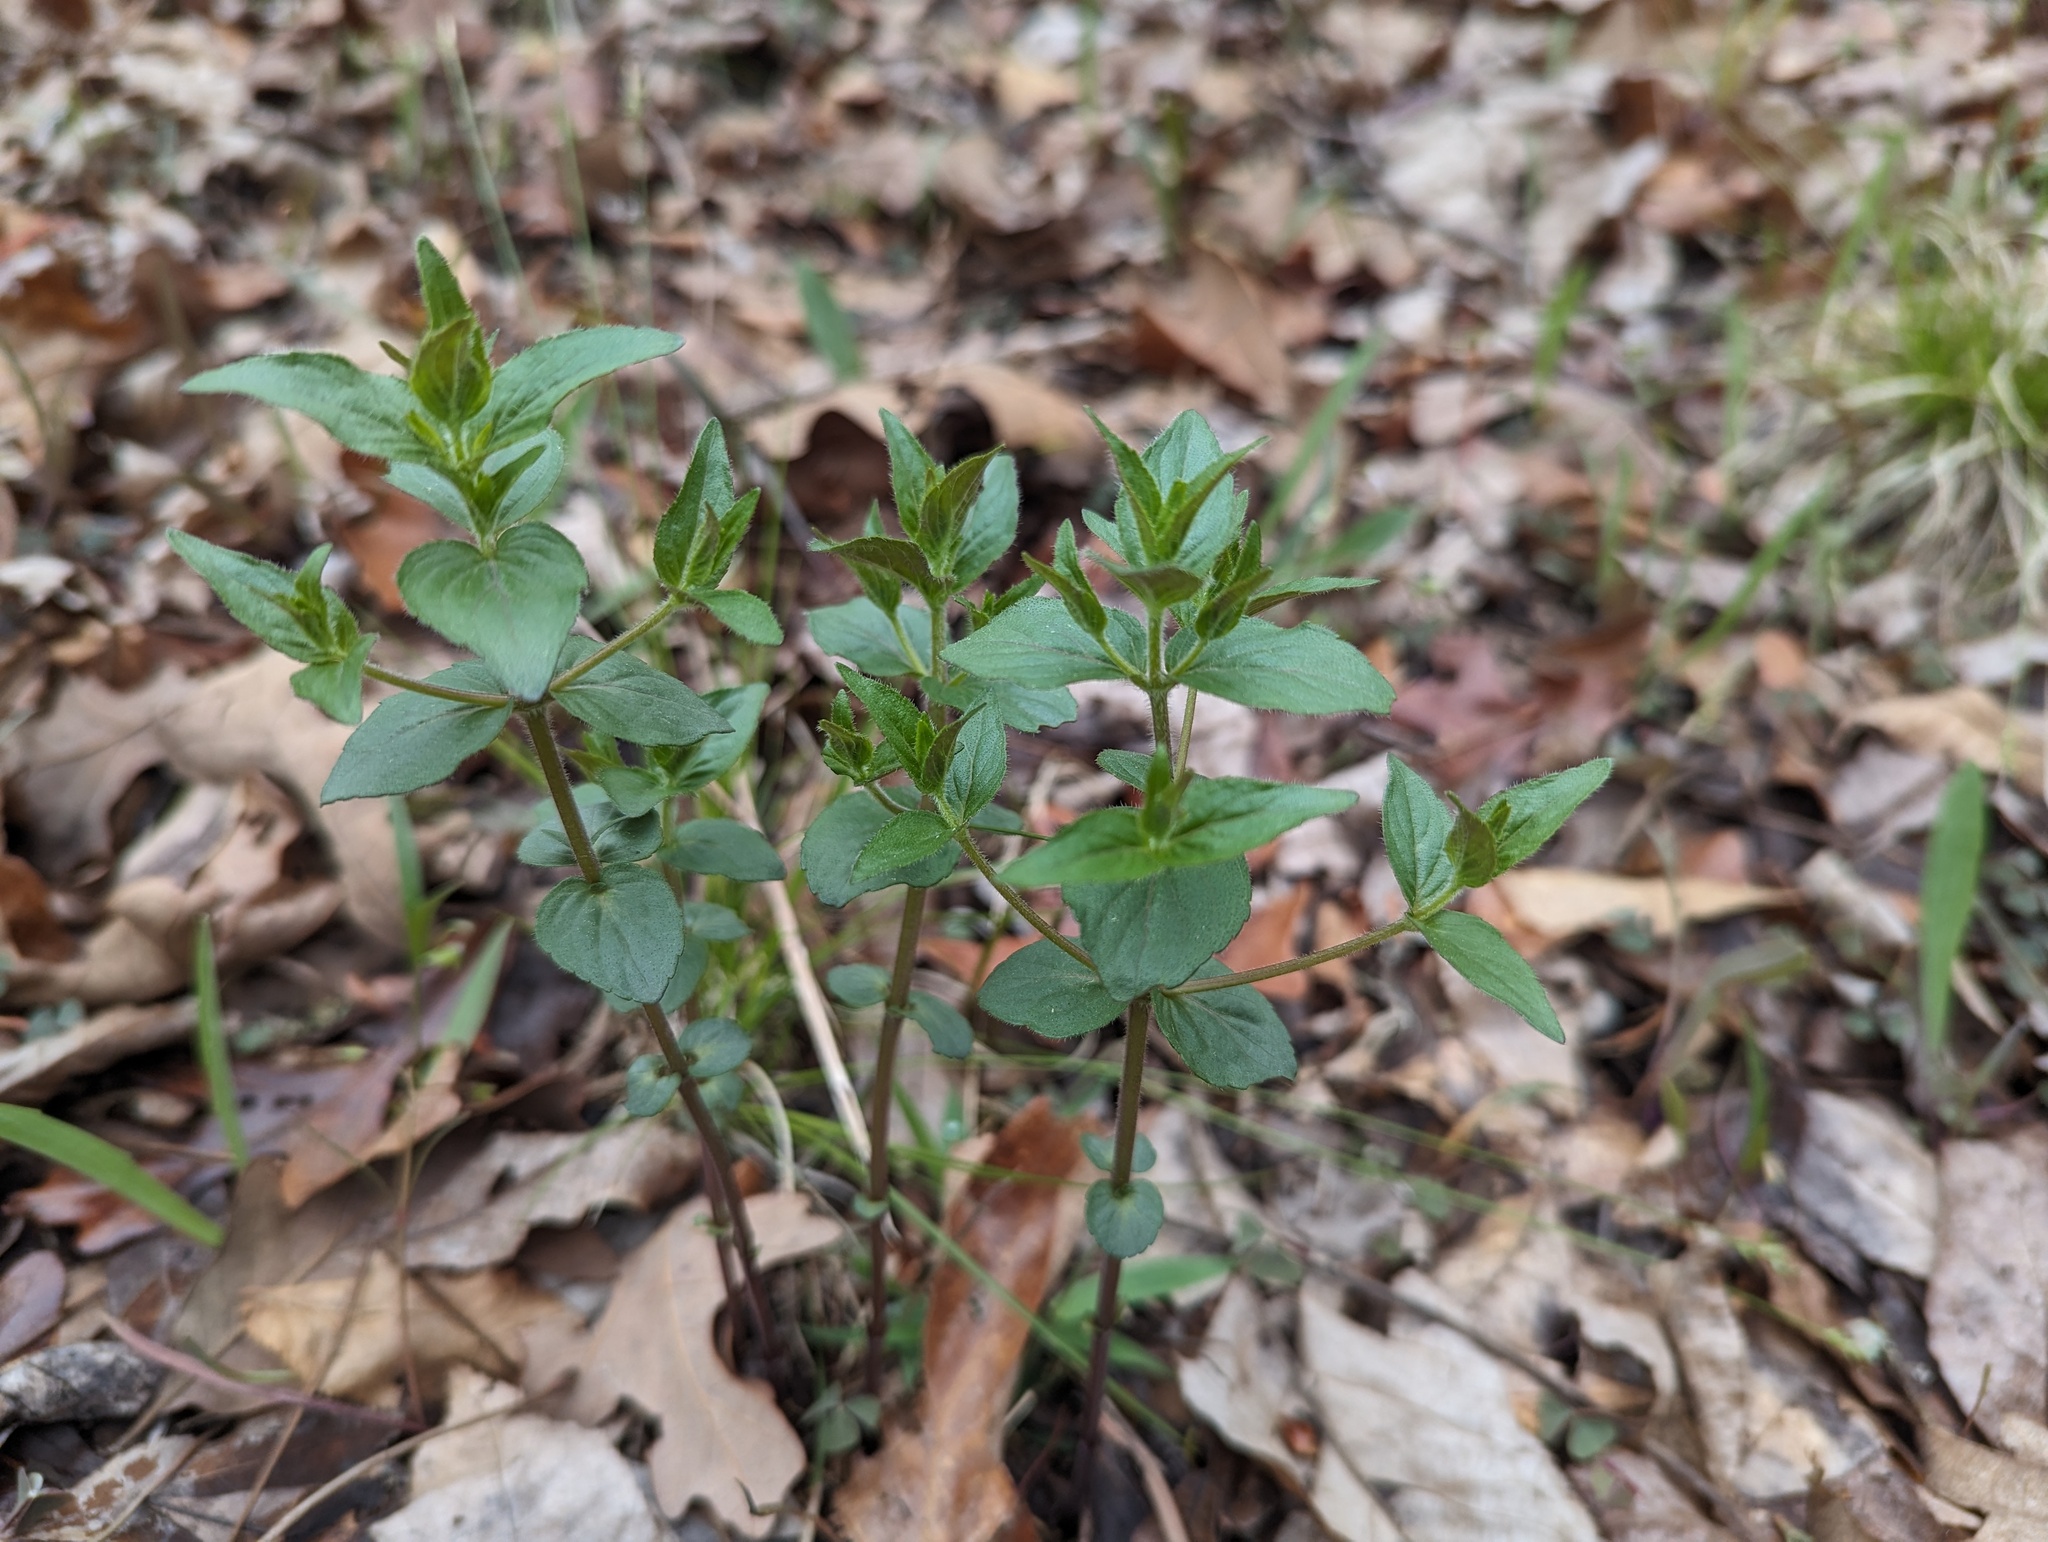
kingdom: Plantae
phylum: Tracheophyta
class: Magnoliopsida
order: Lamiales
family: Lamiaceae
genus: Cunila
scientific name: Cunila origanoides
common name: American dittany
